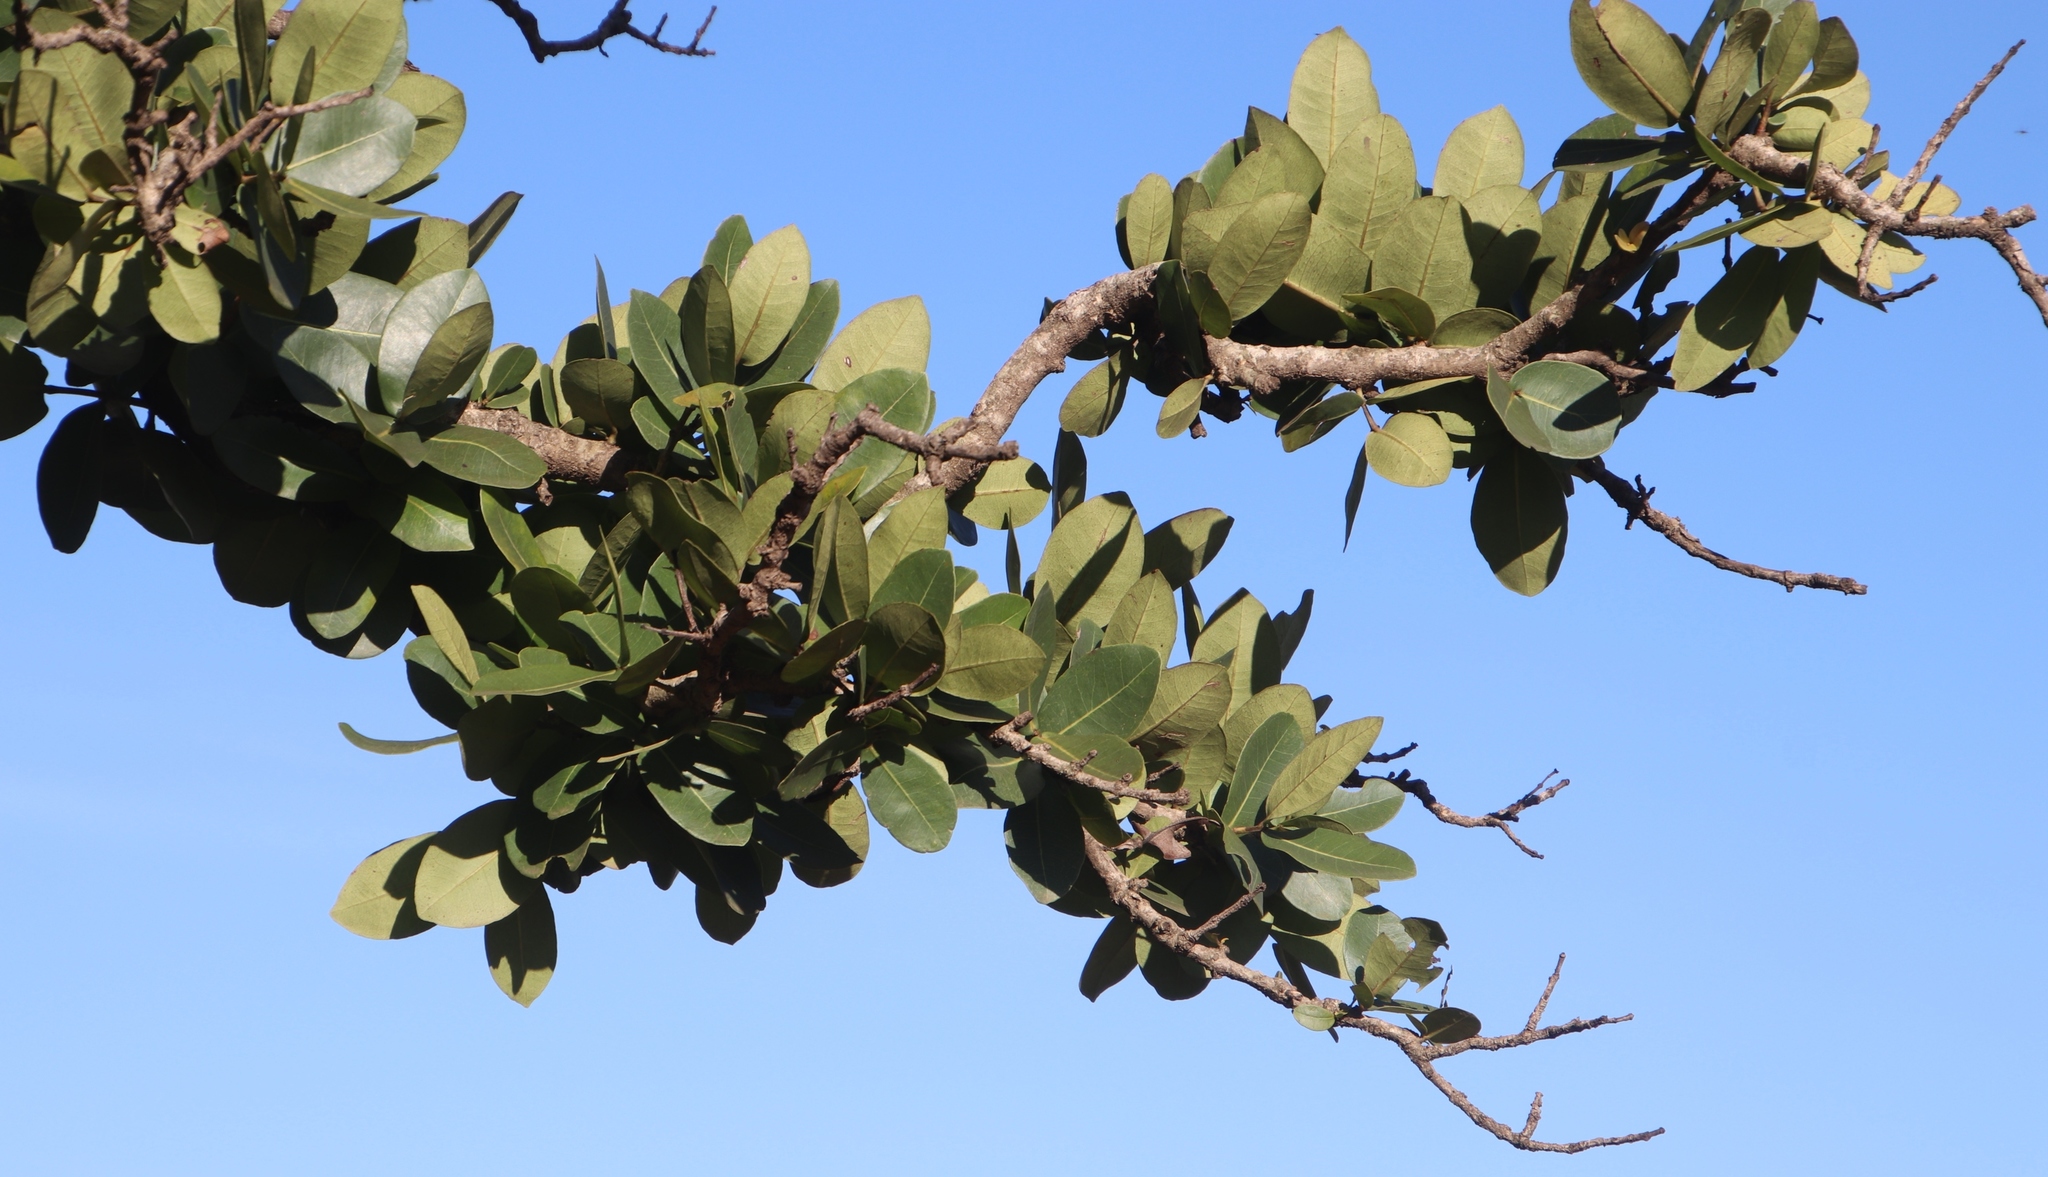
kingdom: Plantae
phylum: Tracheophyta
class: Magnoliopsida
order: Myrtales
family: Myrtaceae
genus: Syzygium
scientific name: Syzygium cordatum
